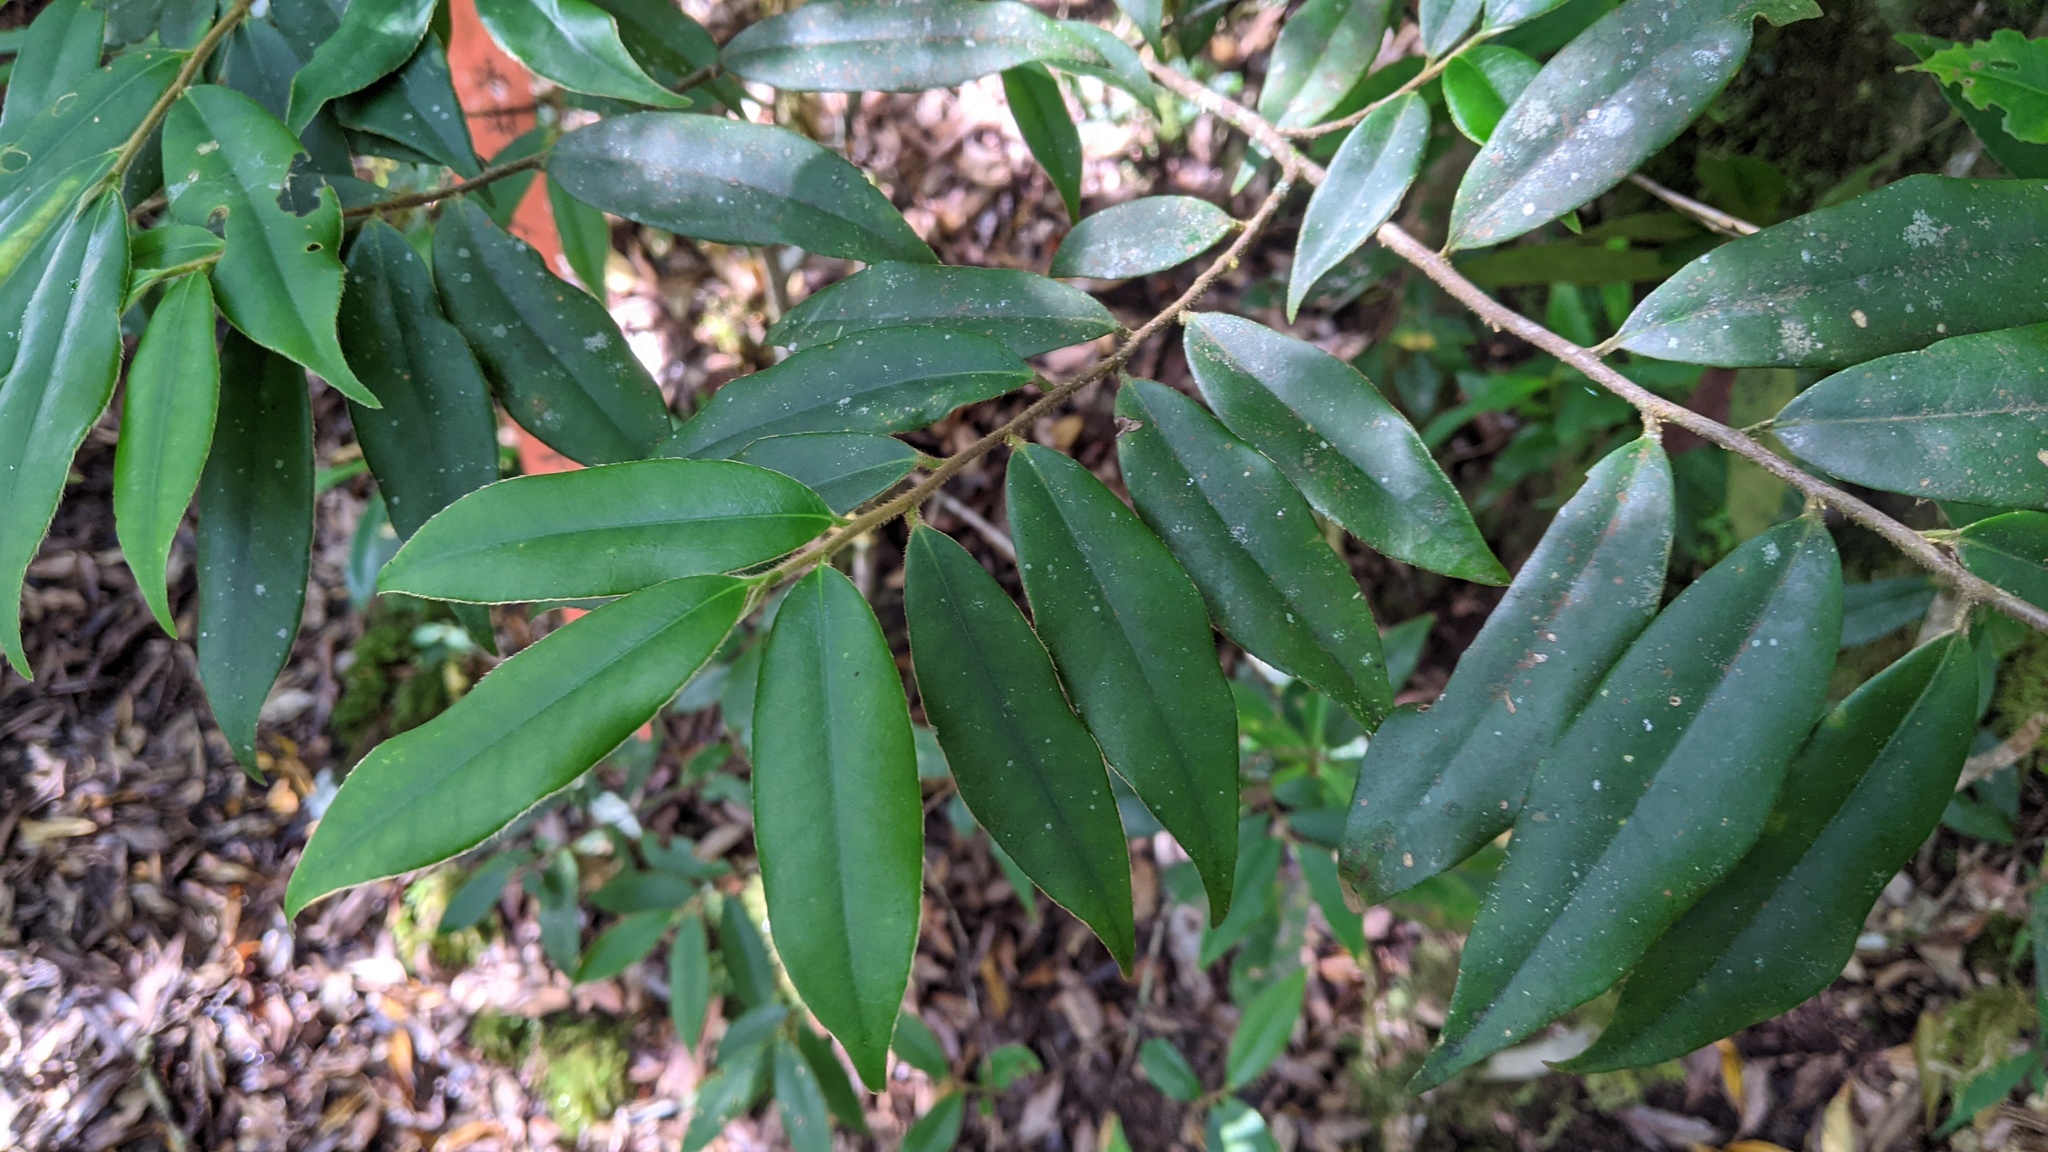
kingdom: Plantae
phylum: Tracheophyta
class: Magnoliopsida
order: Ericales
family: Pentaphylacaceae
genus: Adinandra
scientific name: Adinandra lasiostyla
